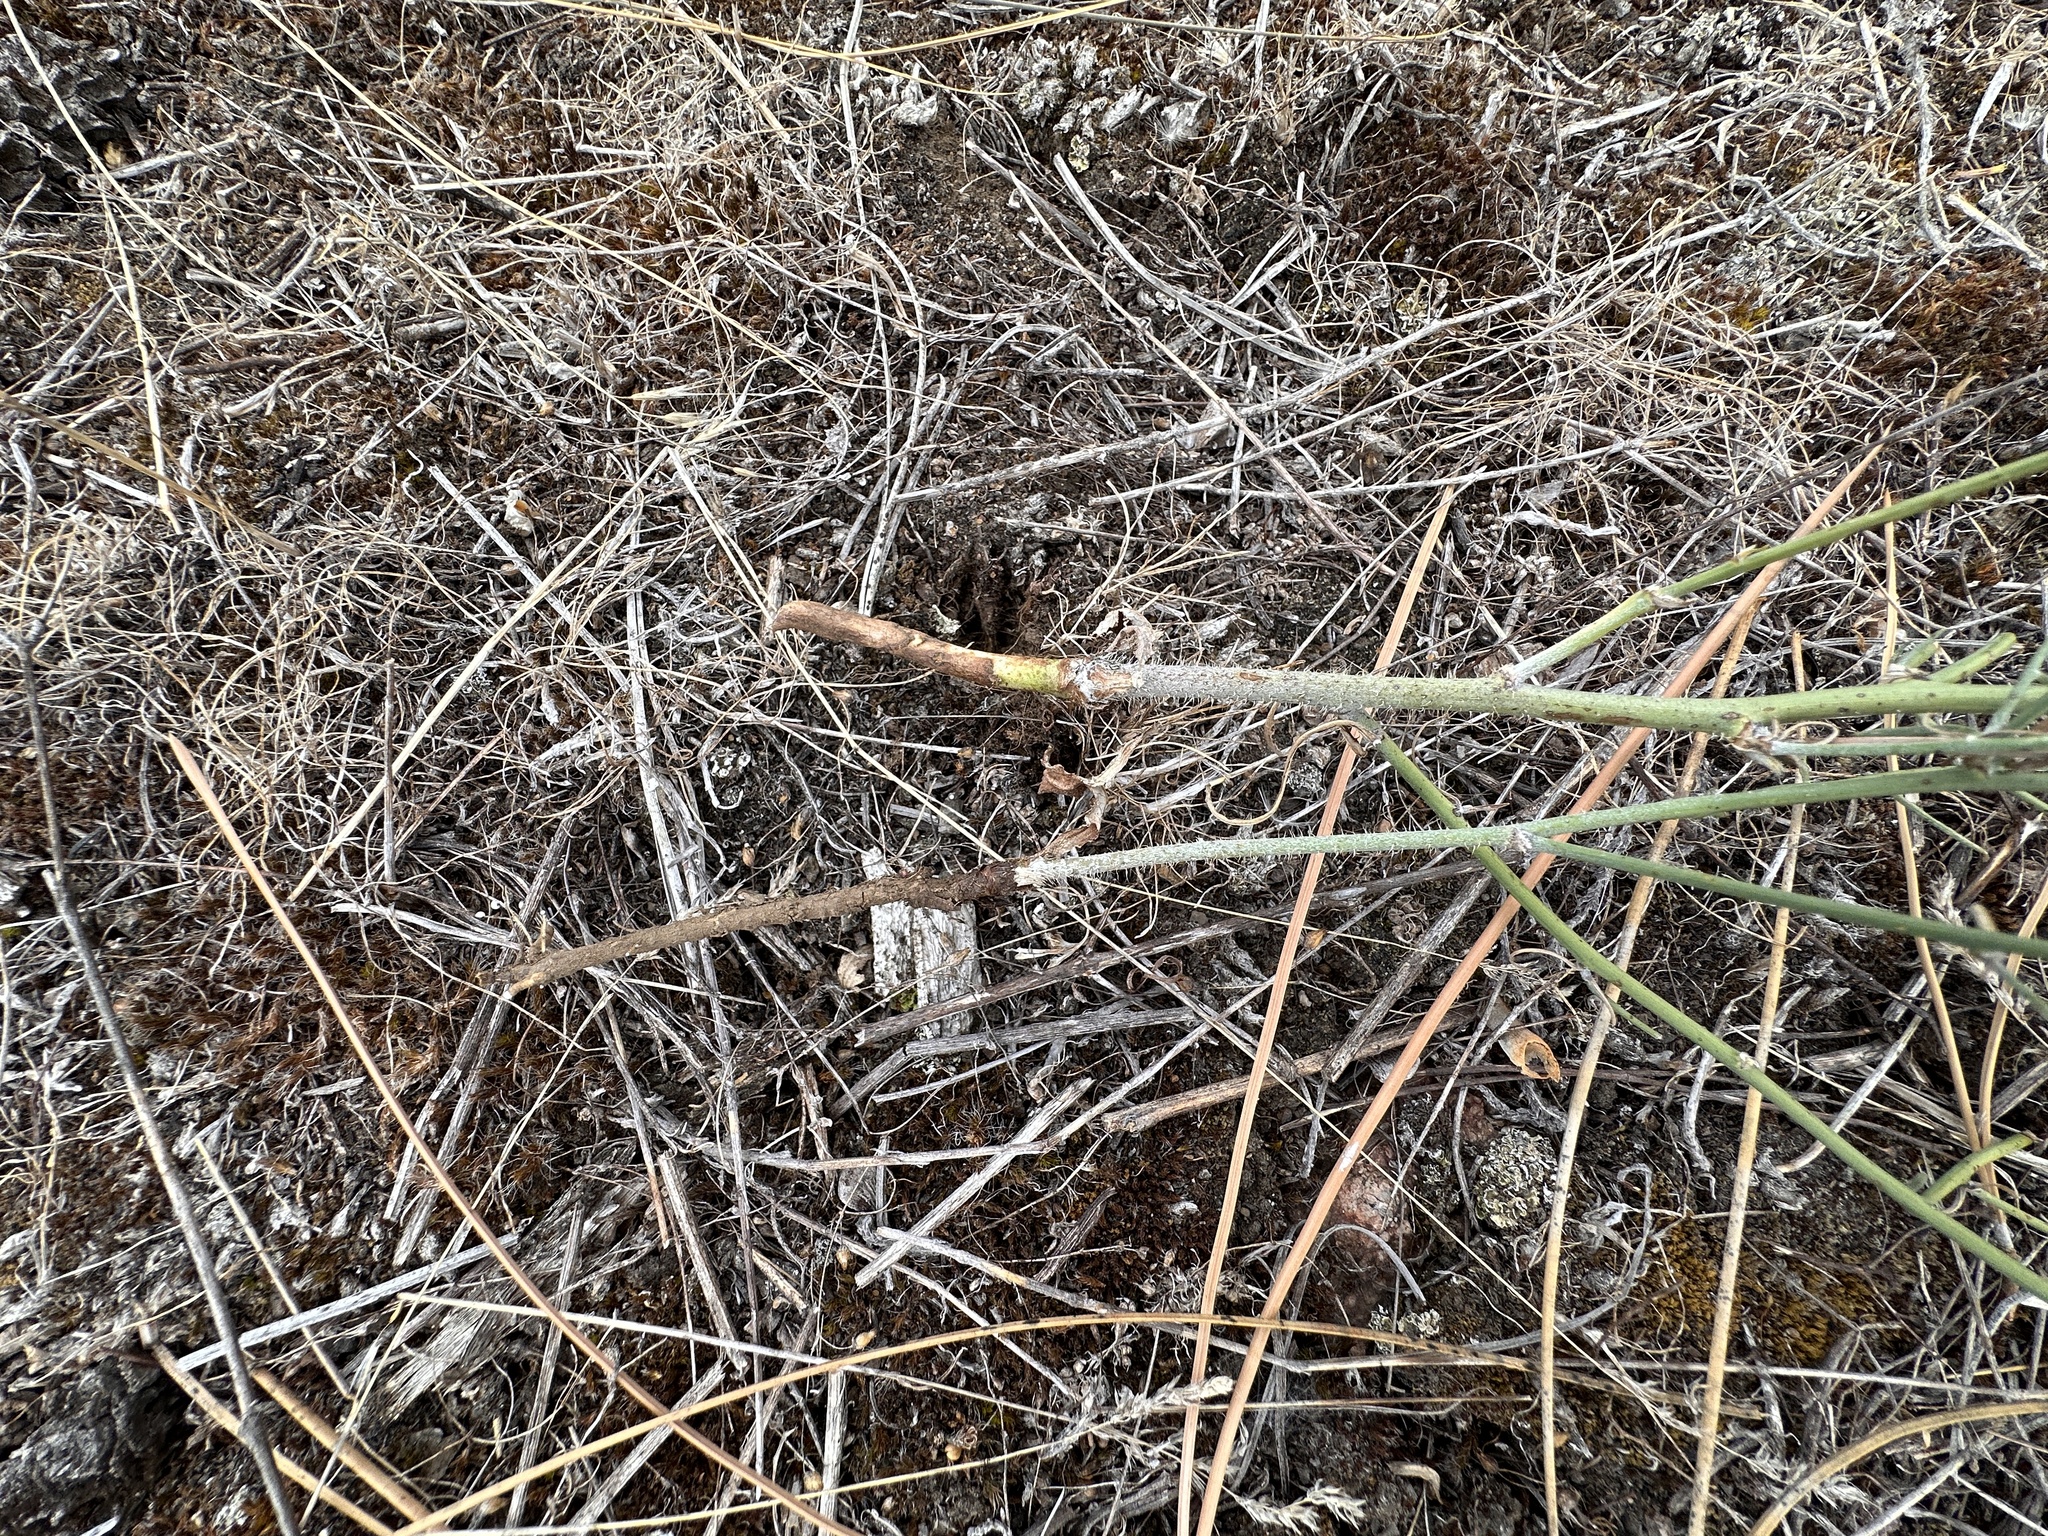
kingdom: Plantae
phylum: Tracheophyta
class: Magnoliopsida
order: Asterales
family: Asteraceae
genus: Chondrilla
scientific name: Chondrilla juncea
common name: Skeleton weed
